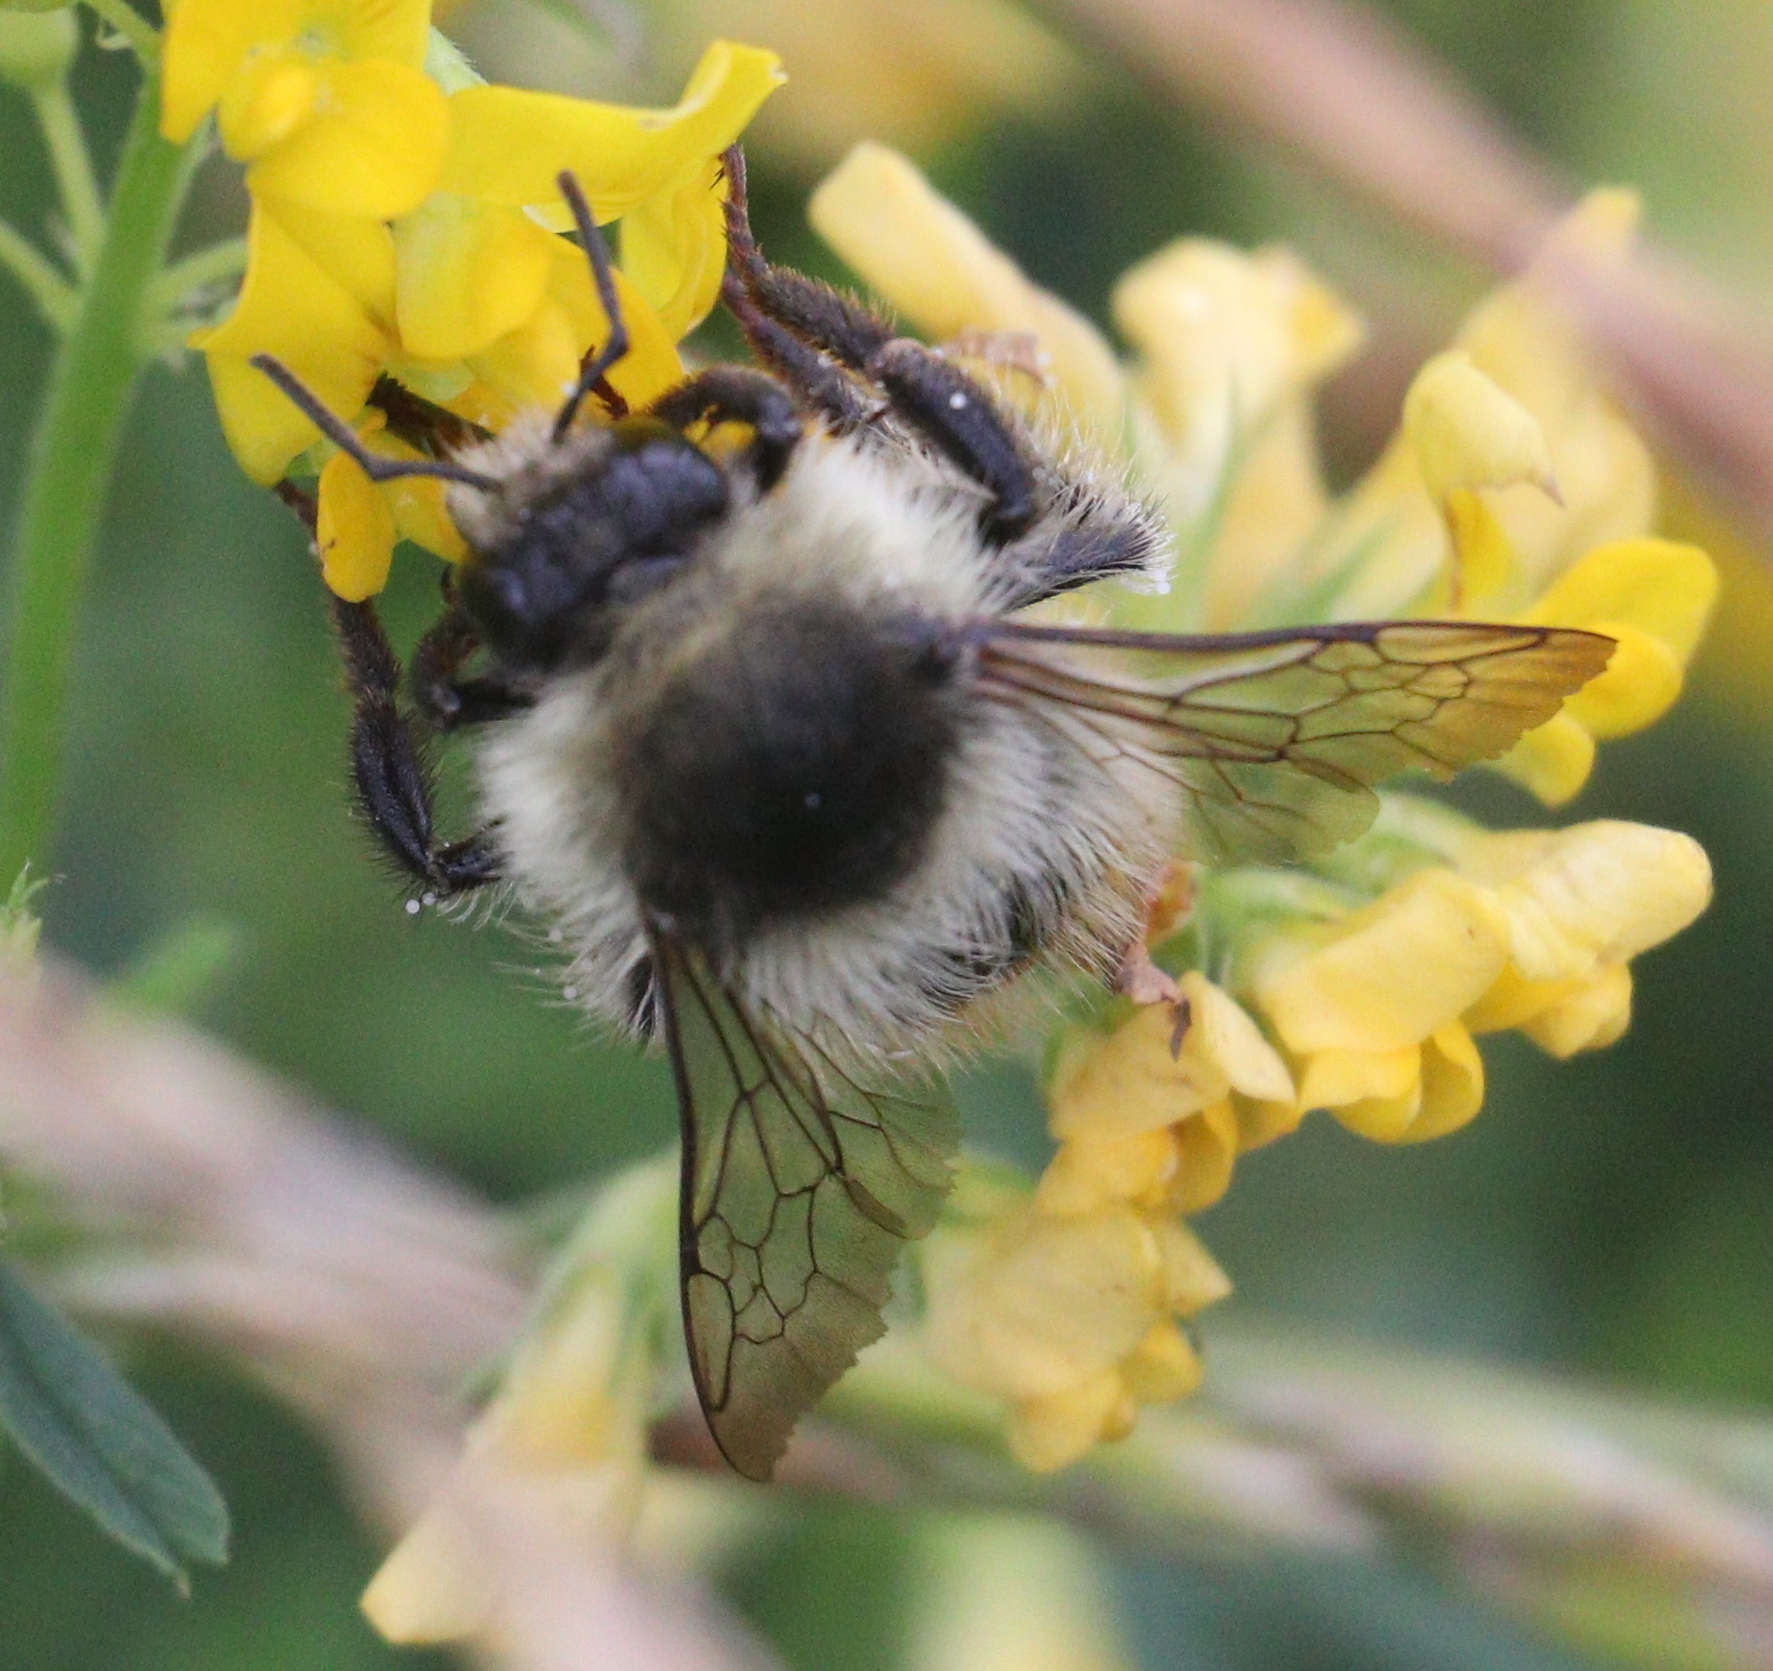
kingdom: Animalia
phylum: Arthropoda
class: Insecta
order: Hymenoptera
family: Apidae
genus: Bombus
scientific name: Bombus sylvarum
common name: Shrill carder bee
